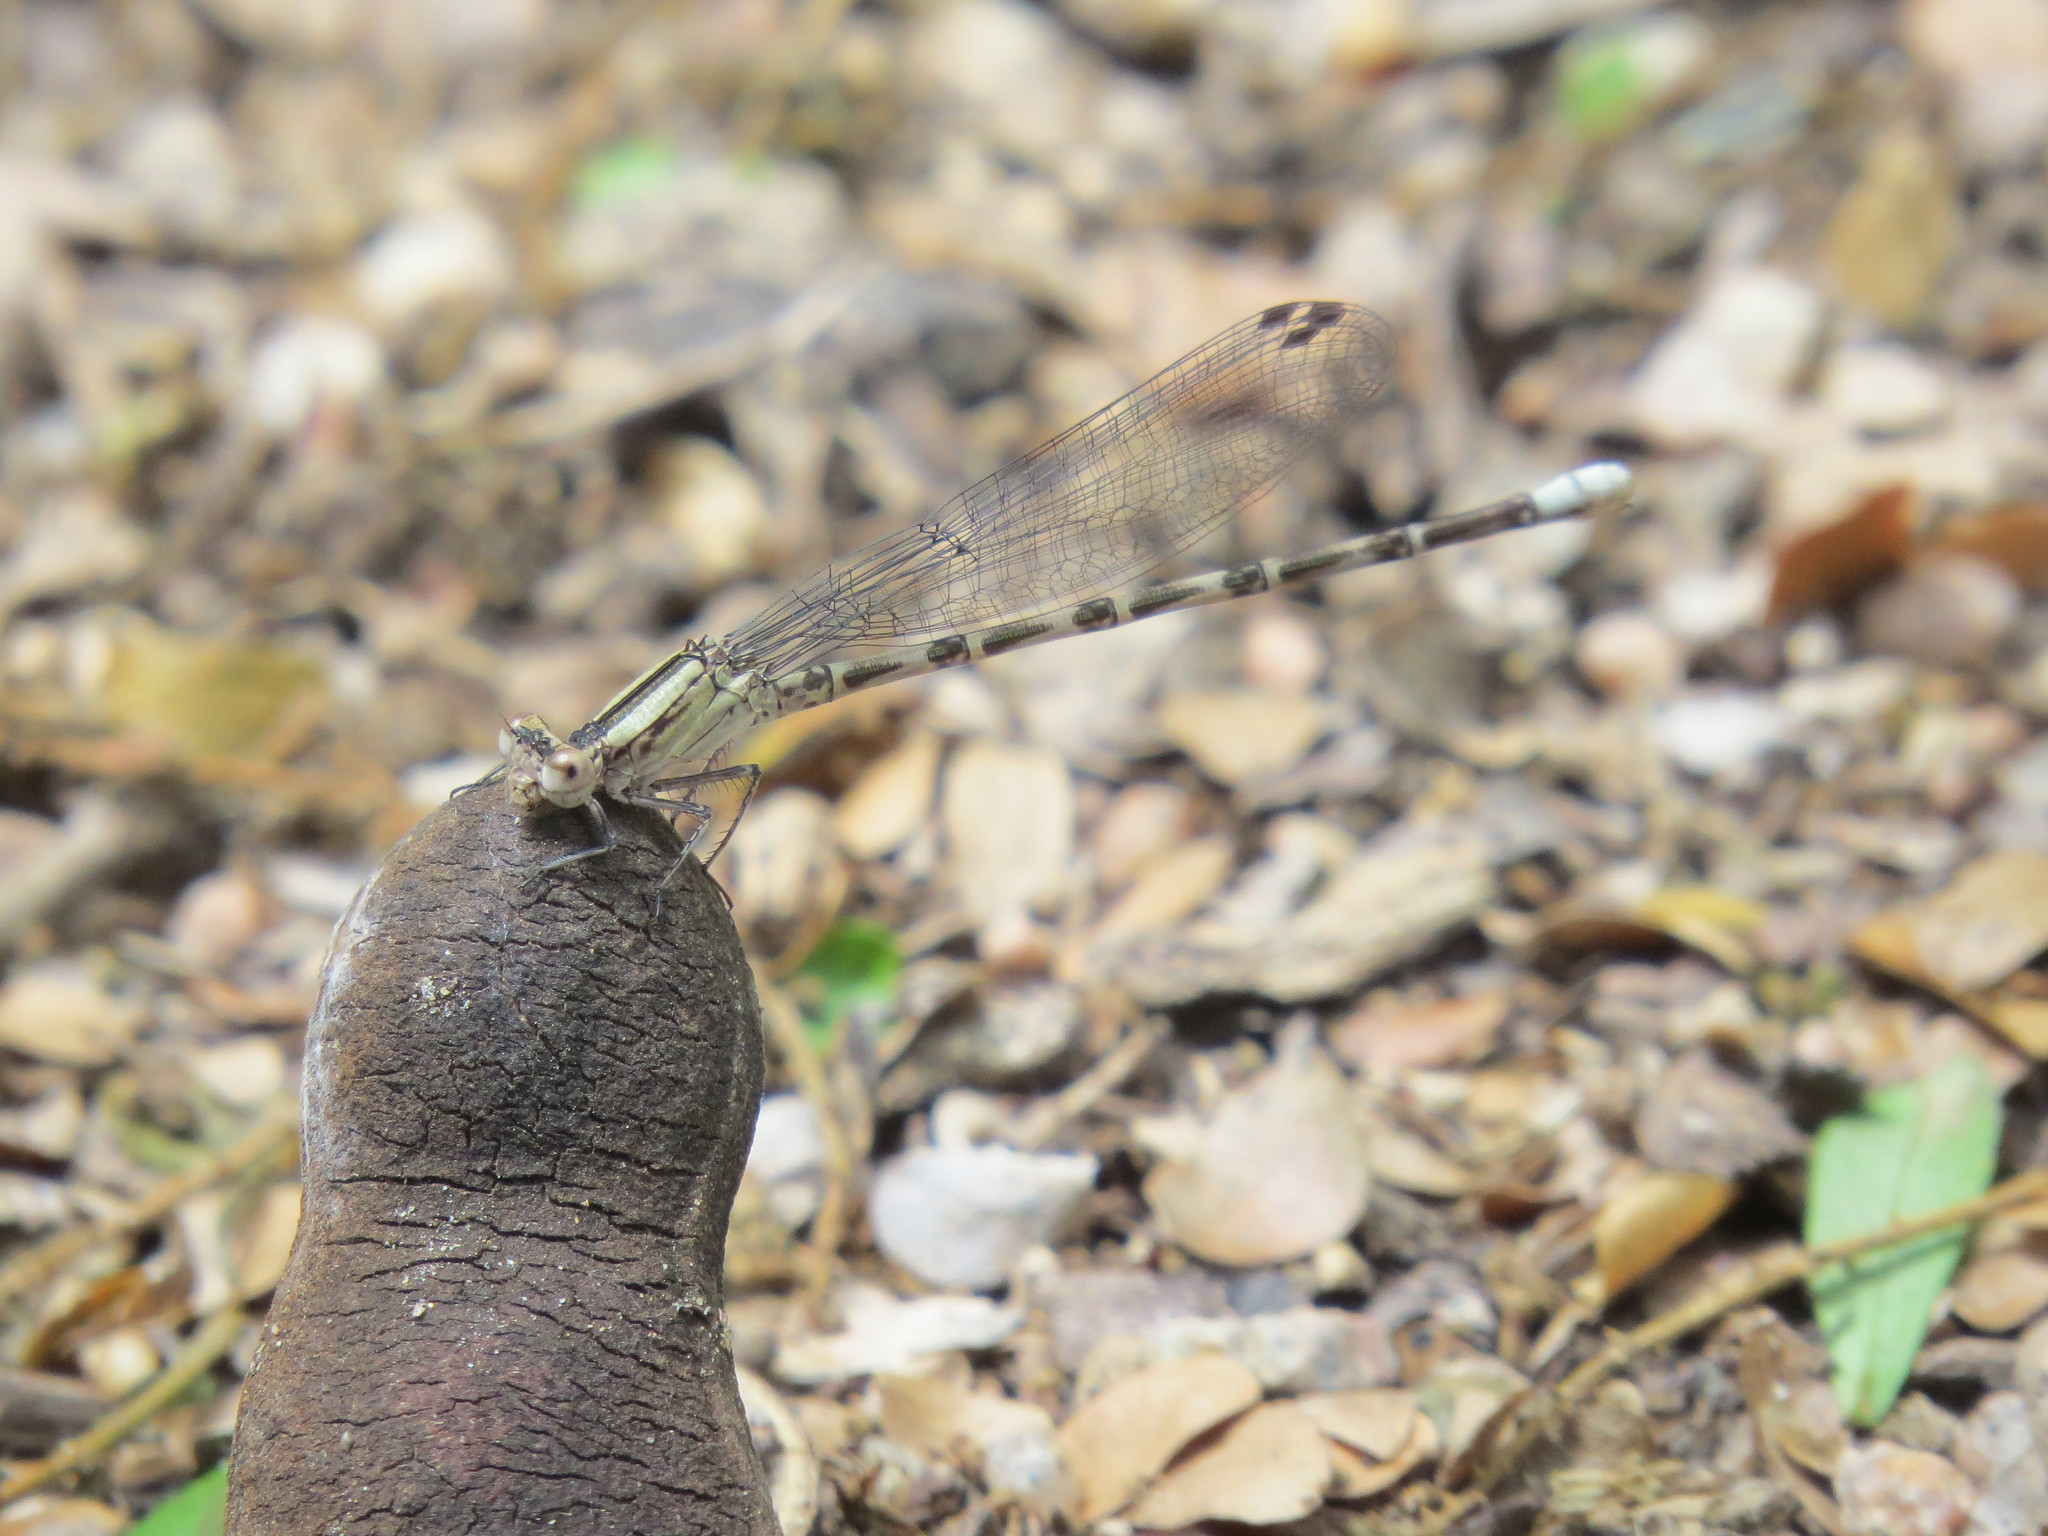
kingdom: Animalia
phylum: Arthropoda
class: Insecta
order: Odonata
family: Coenagrionidae
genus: Argia
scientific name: Argia immunda
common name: Kiowa dancer
